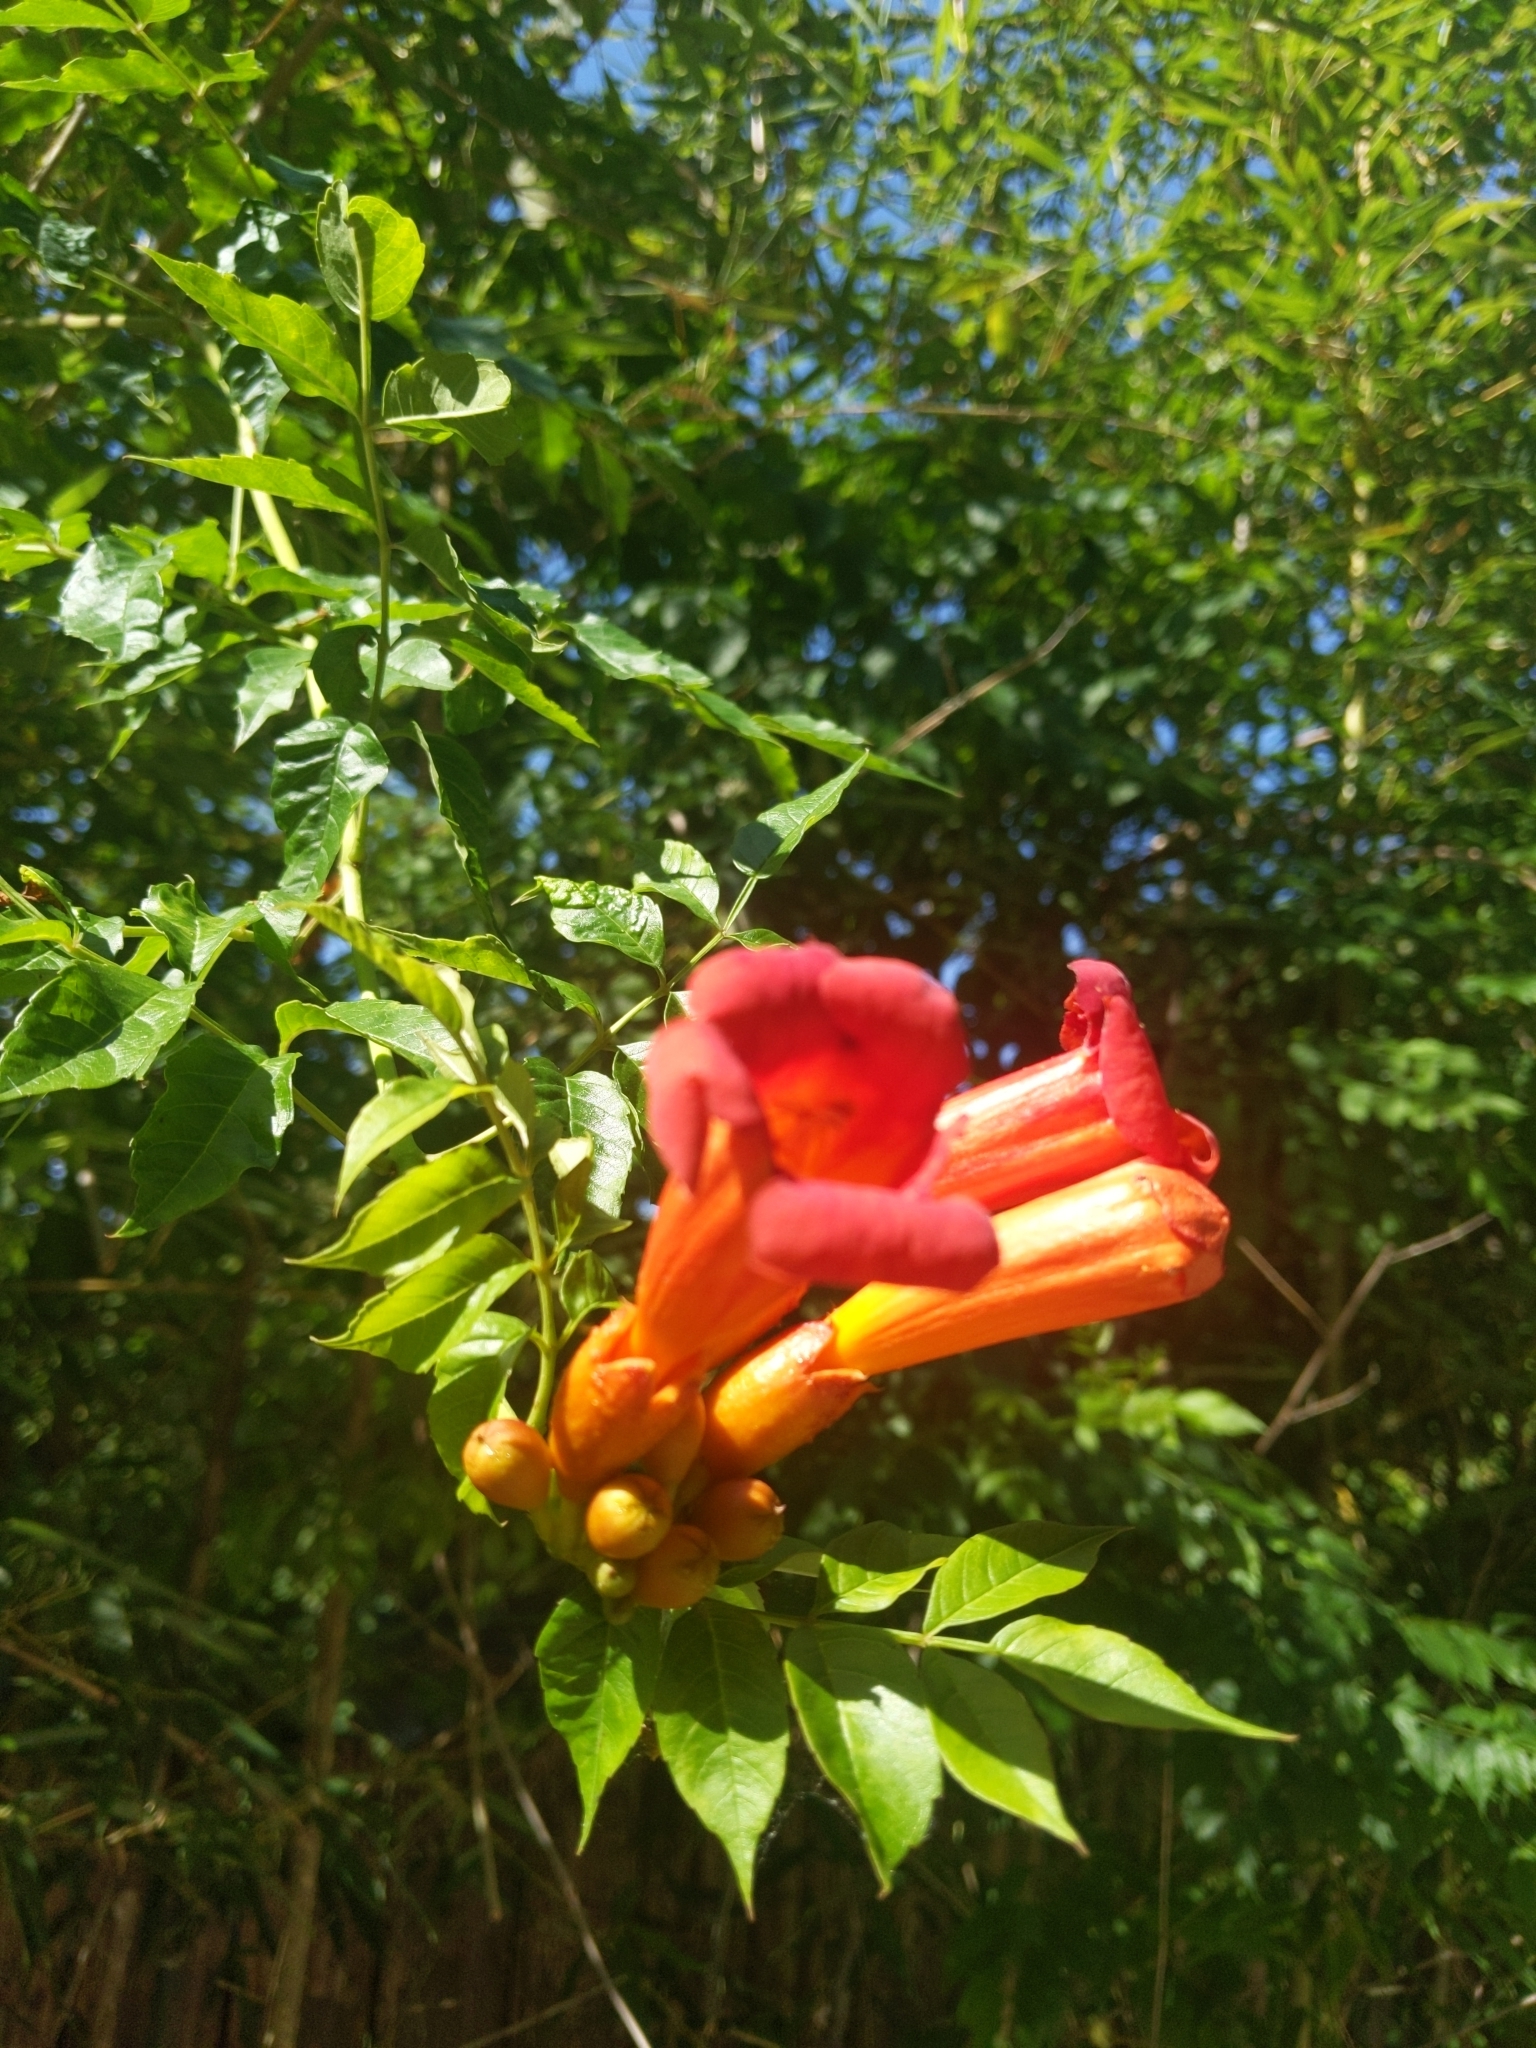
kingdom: Plantae
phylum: Tracheophyta
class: Magnoliopsida
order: Lamiales
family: Bignoniaceae
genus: Campsis
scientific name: Campsis radicans
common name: Trumpet-creeper
